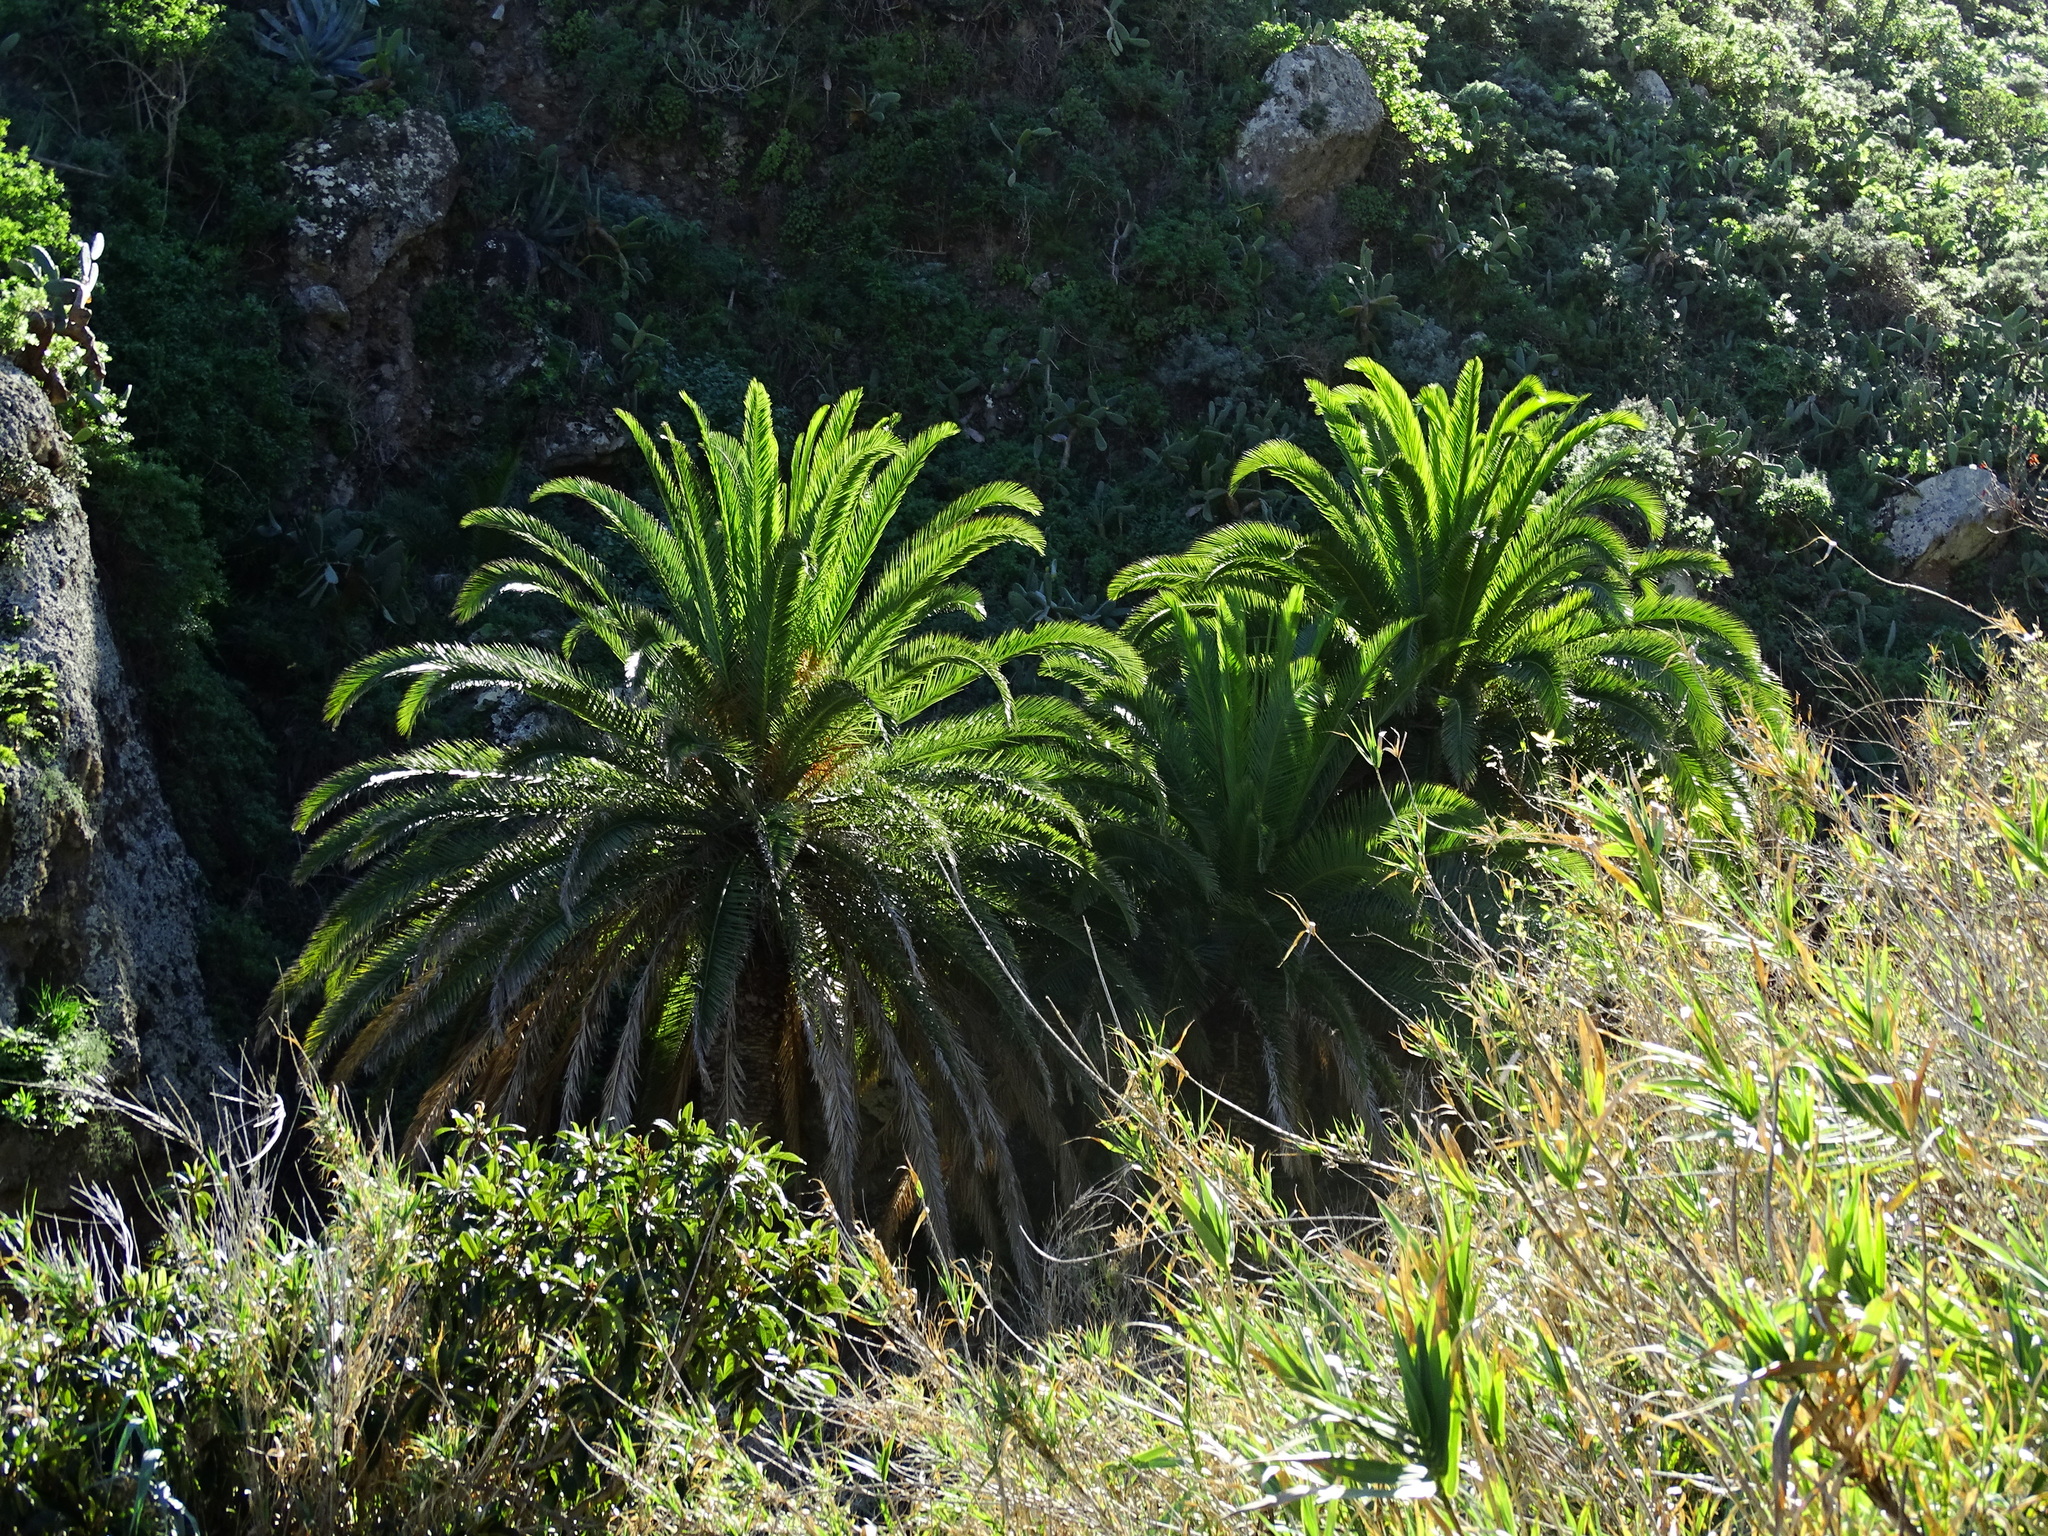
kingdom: Plantae
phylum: Tracheophyta
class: Liliopsida
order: Arecales
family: Arecaceae
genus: Phoenix
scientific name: Phoenix canariensis
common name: Canary island date palm
